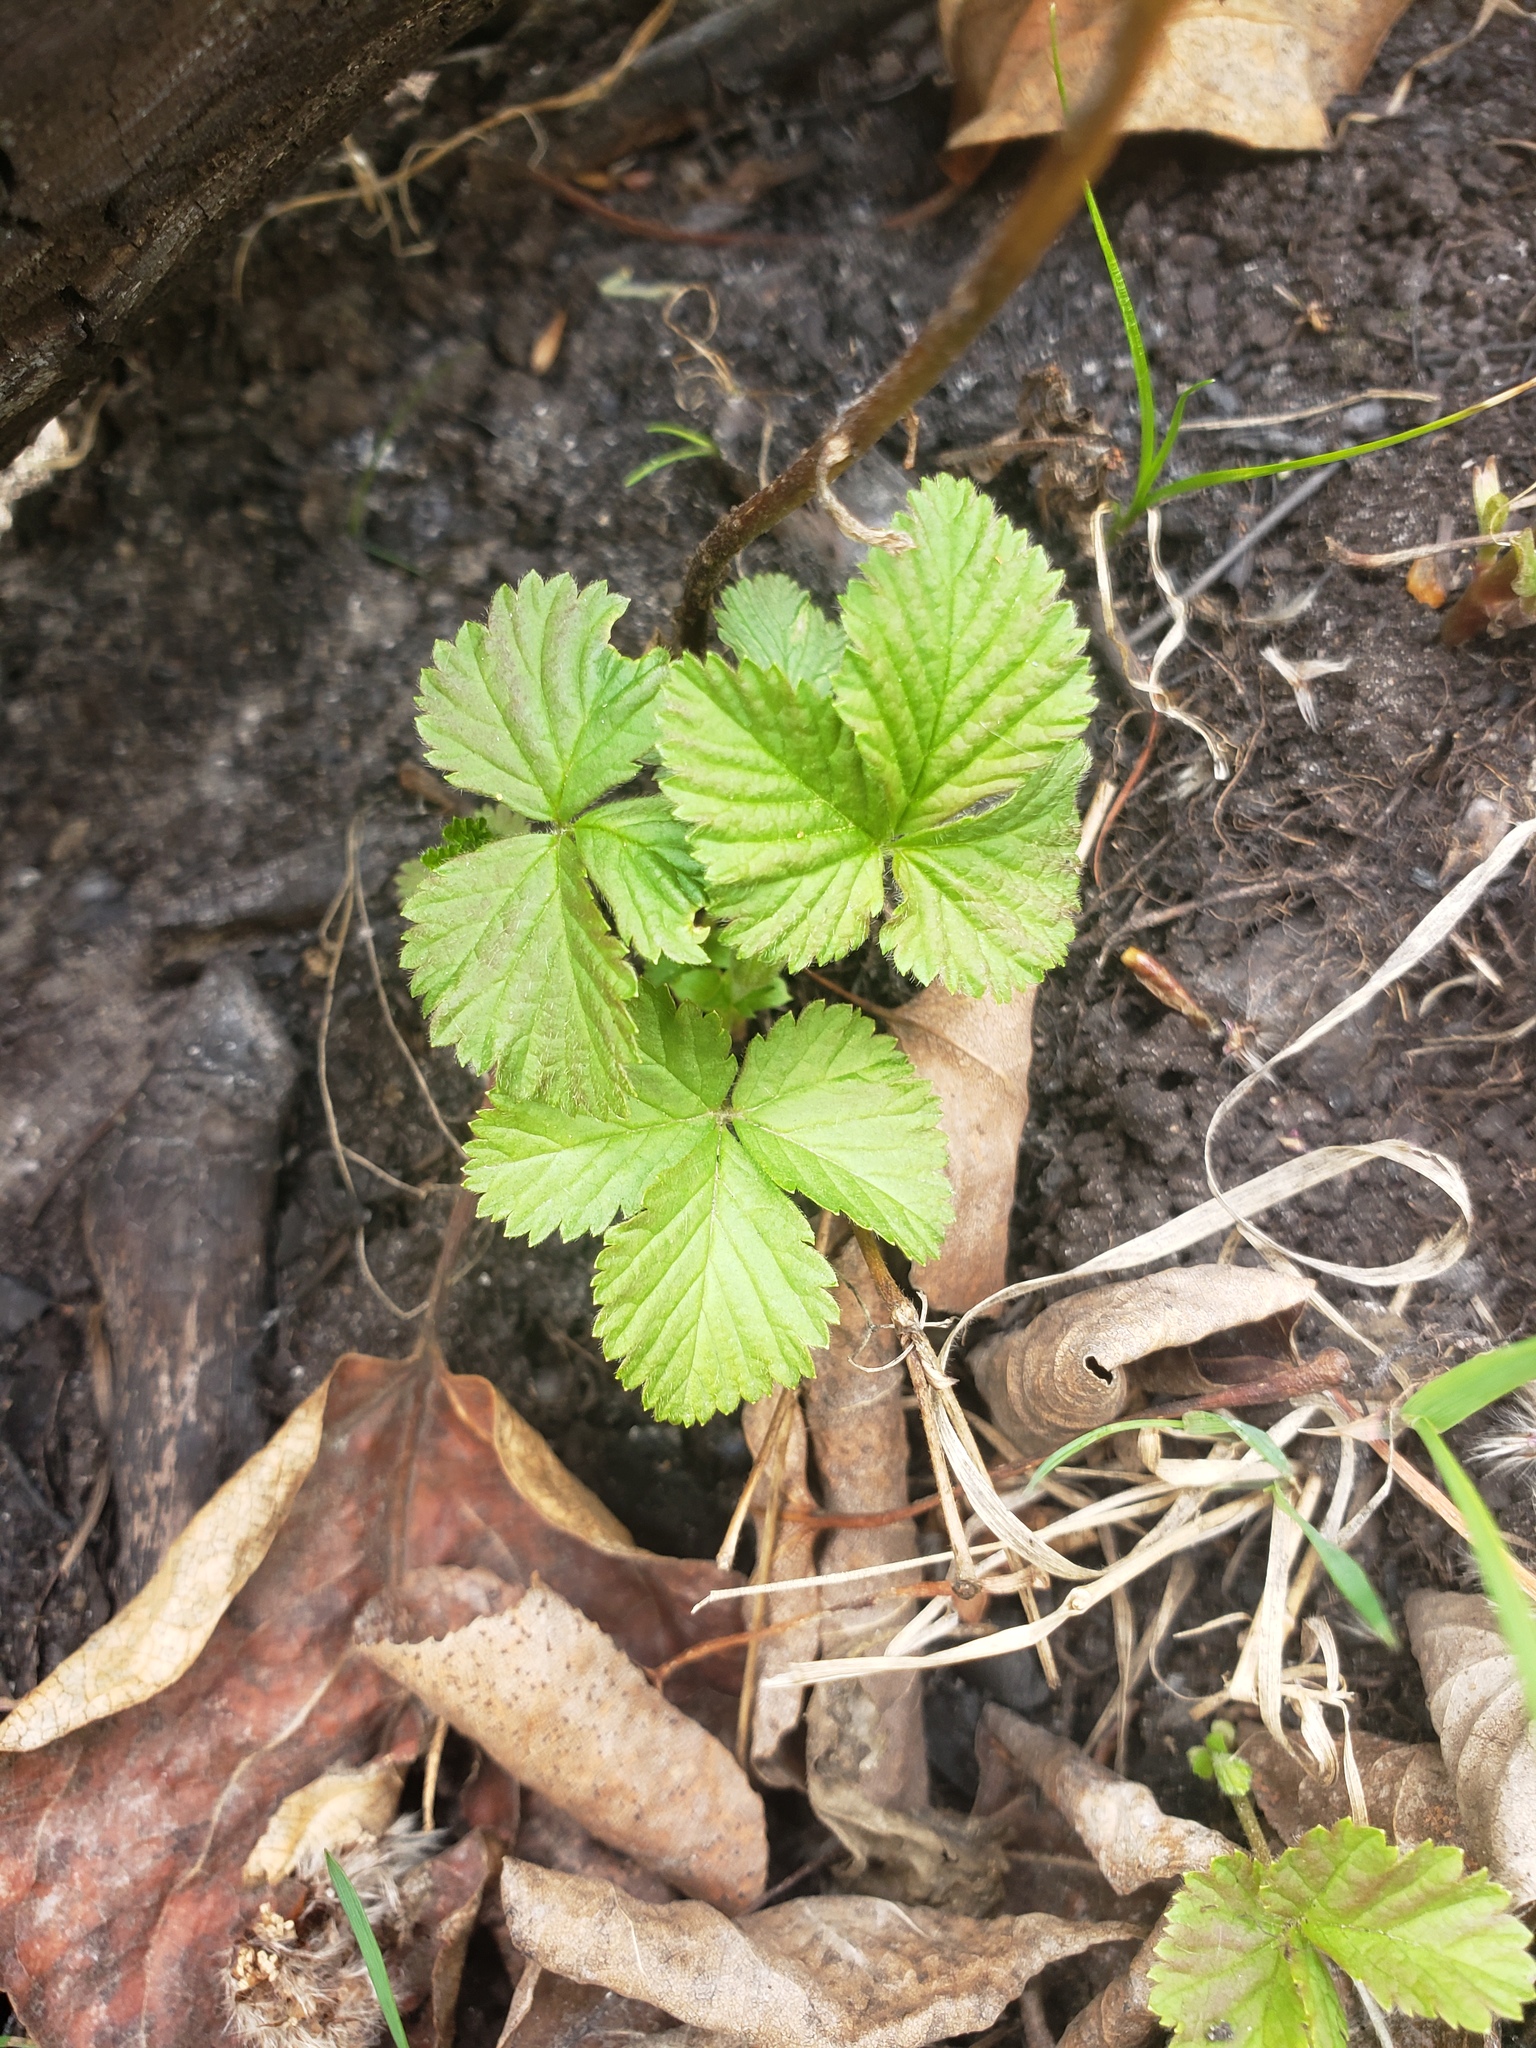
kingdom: Plantae
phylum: Tracheophyta
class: Magnoliopsida
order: Rosales
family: Rosaceae
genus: Rubus
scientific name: Rubus arcticus
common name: Arctic bramble
